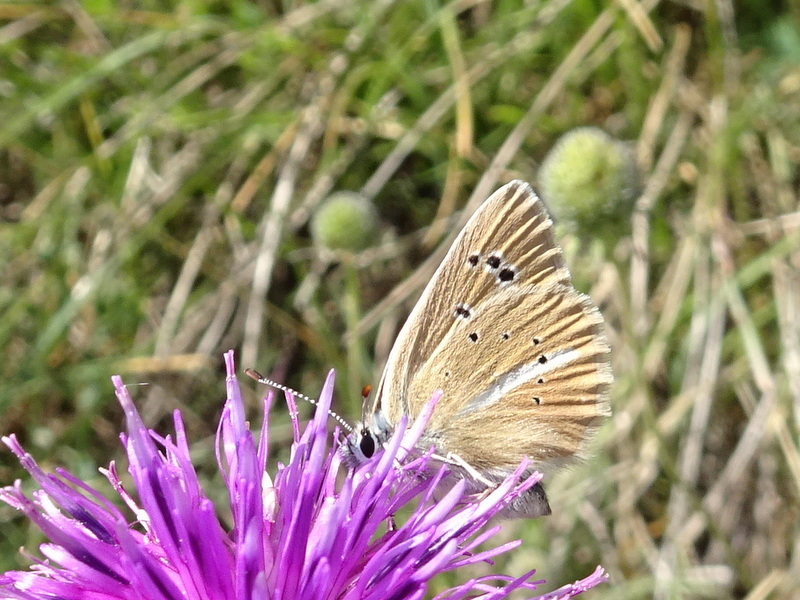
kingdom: Animalia
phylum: Arthropoda
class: Insecta
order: Lepidoptera
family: Lycaenidae
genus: Agrodiaetus
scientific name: Agrodiaetus damon
